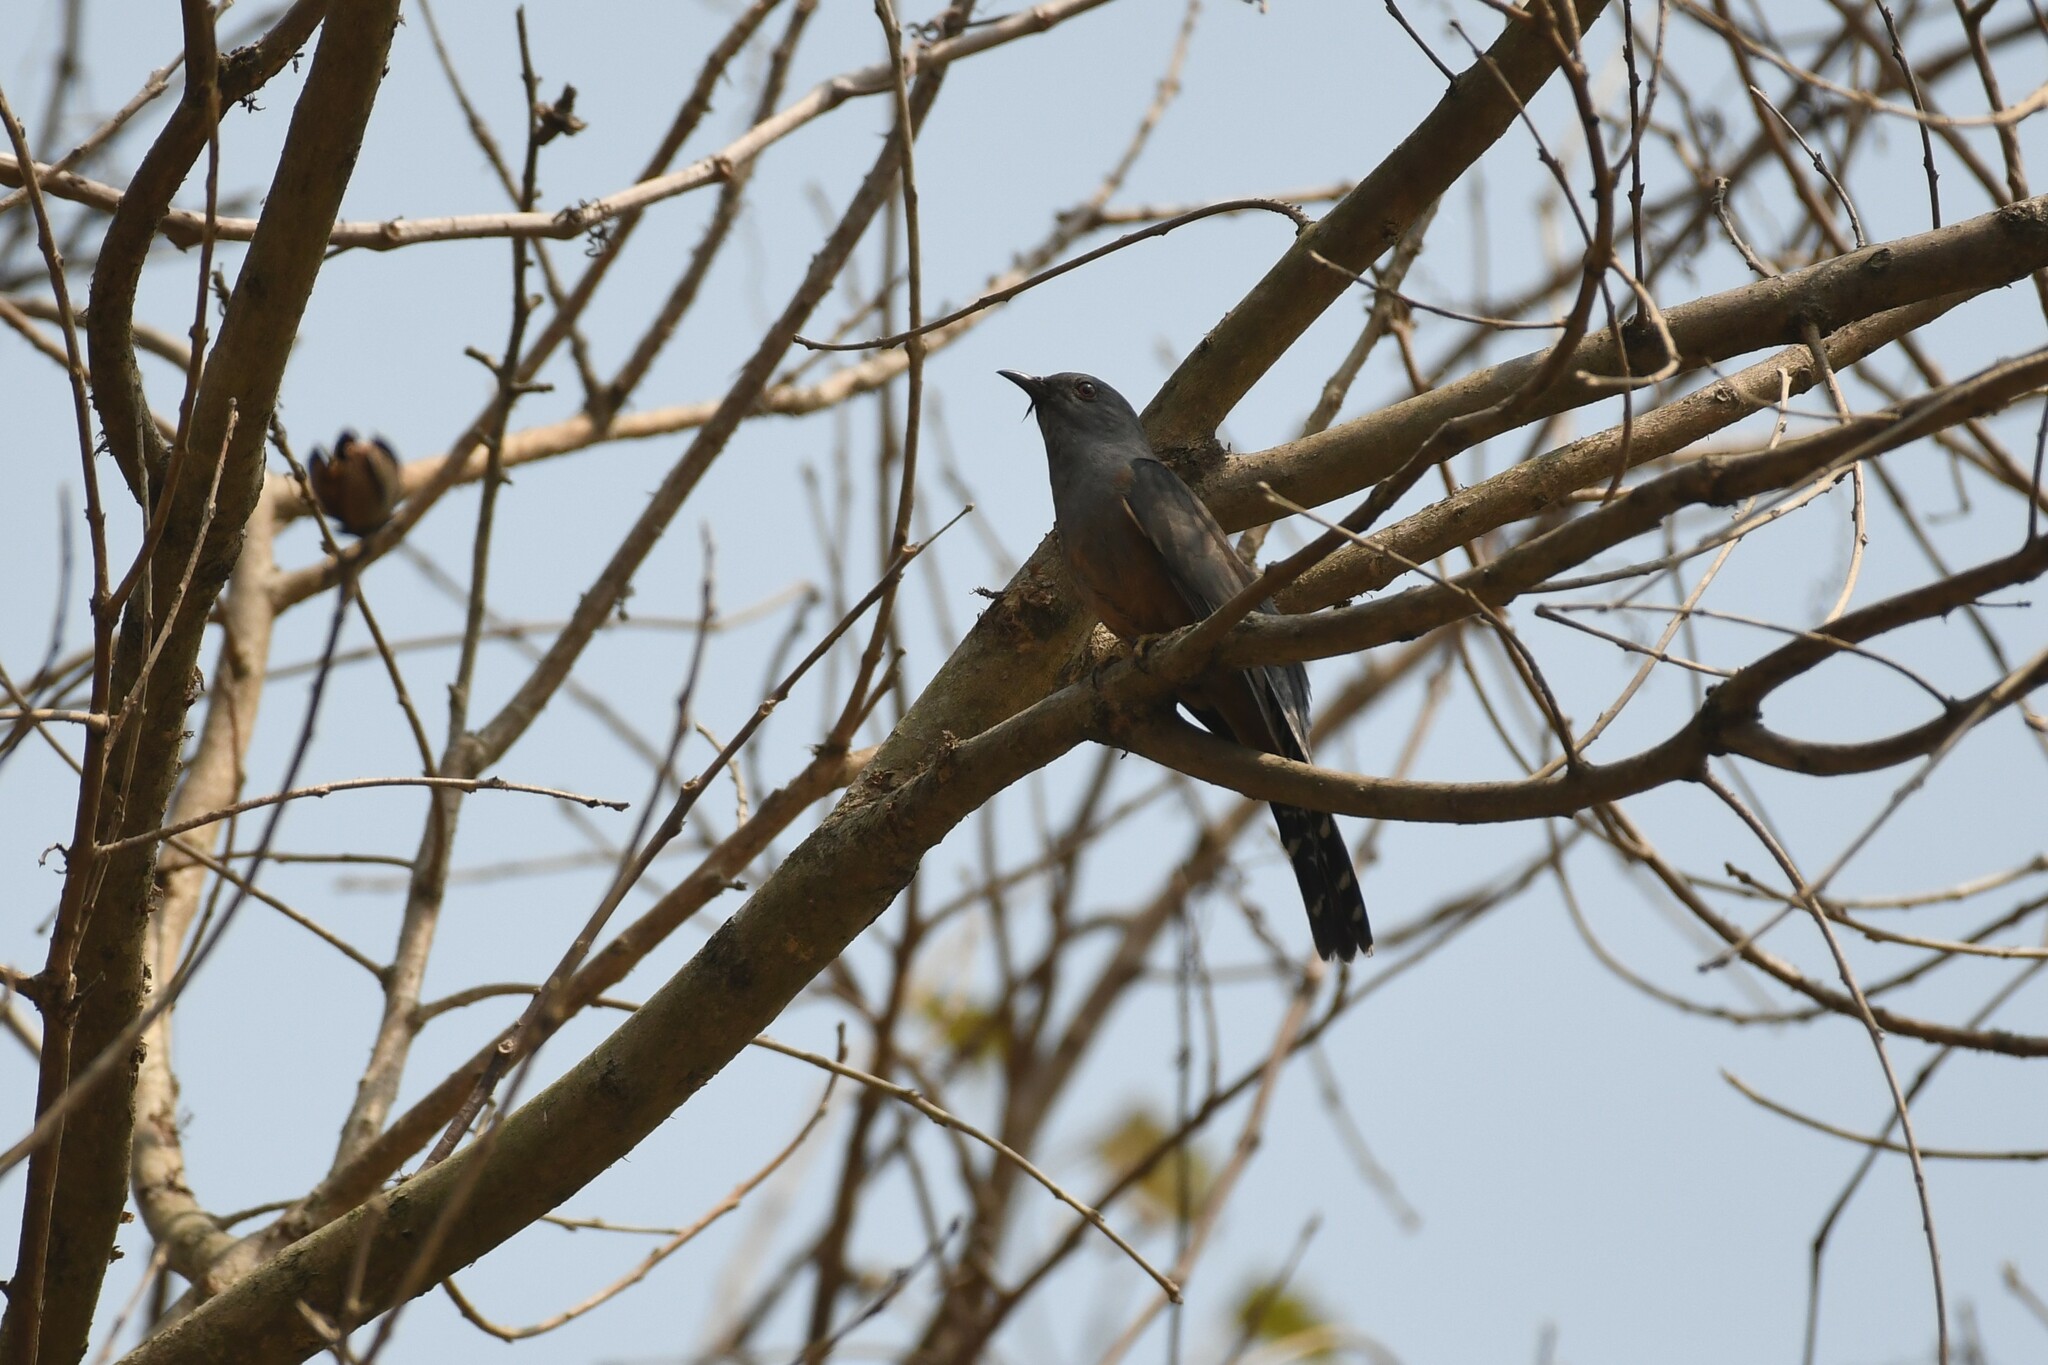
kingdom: Animalia
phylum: Chordata
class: Aves
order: Cuculiformes
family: Cuculidae
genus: Cacomantis
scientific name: Cacomantis merulinus
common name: Plaintive cuckoo
